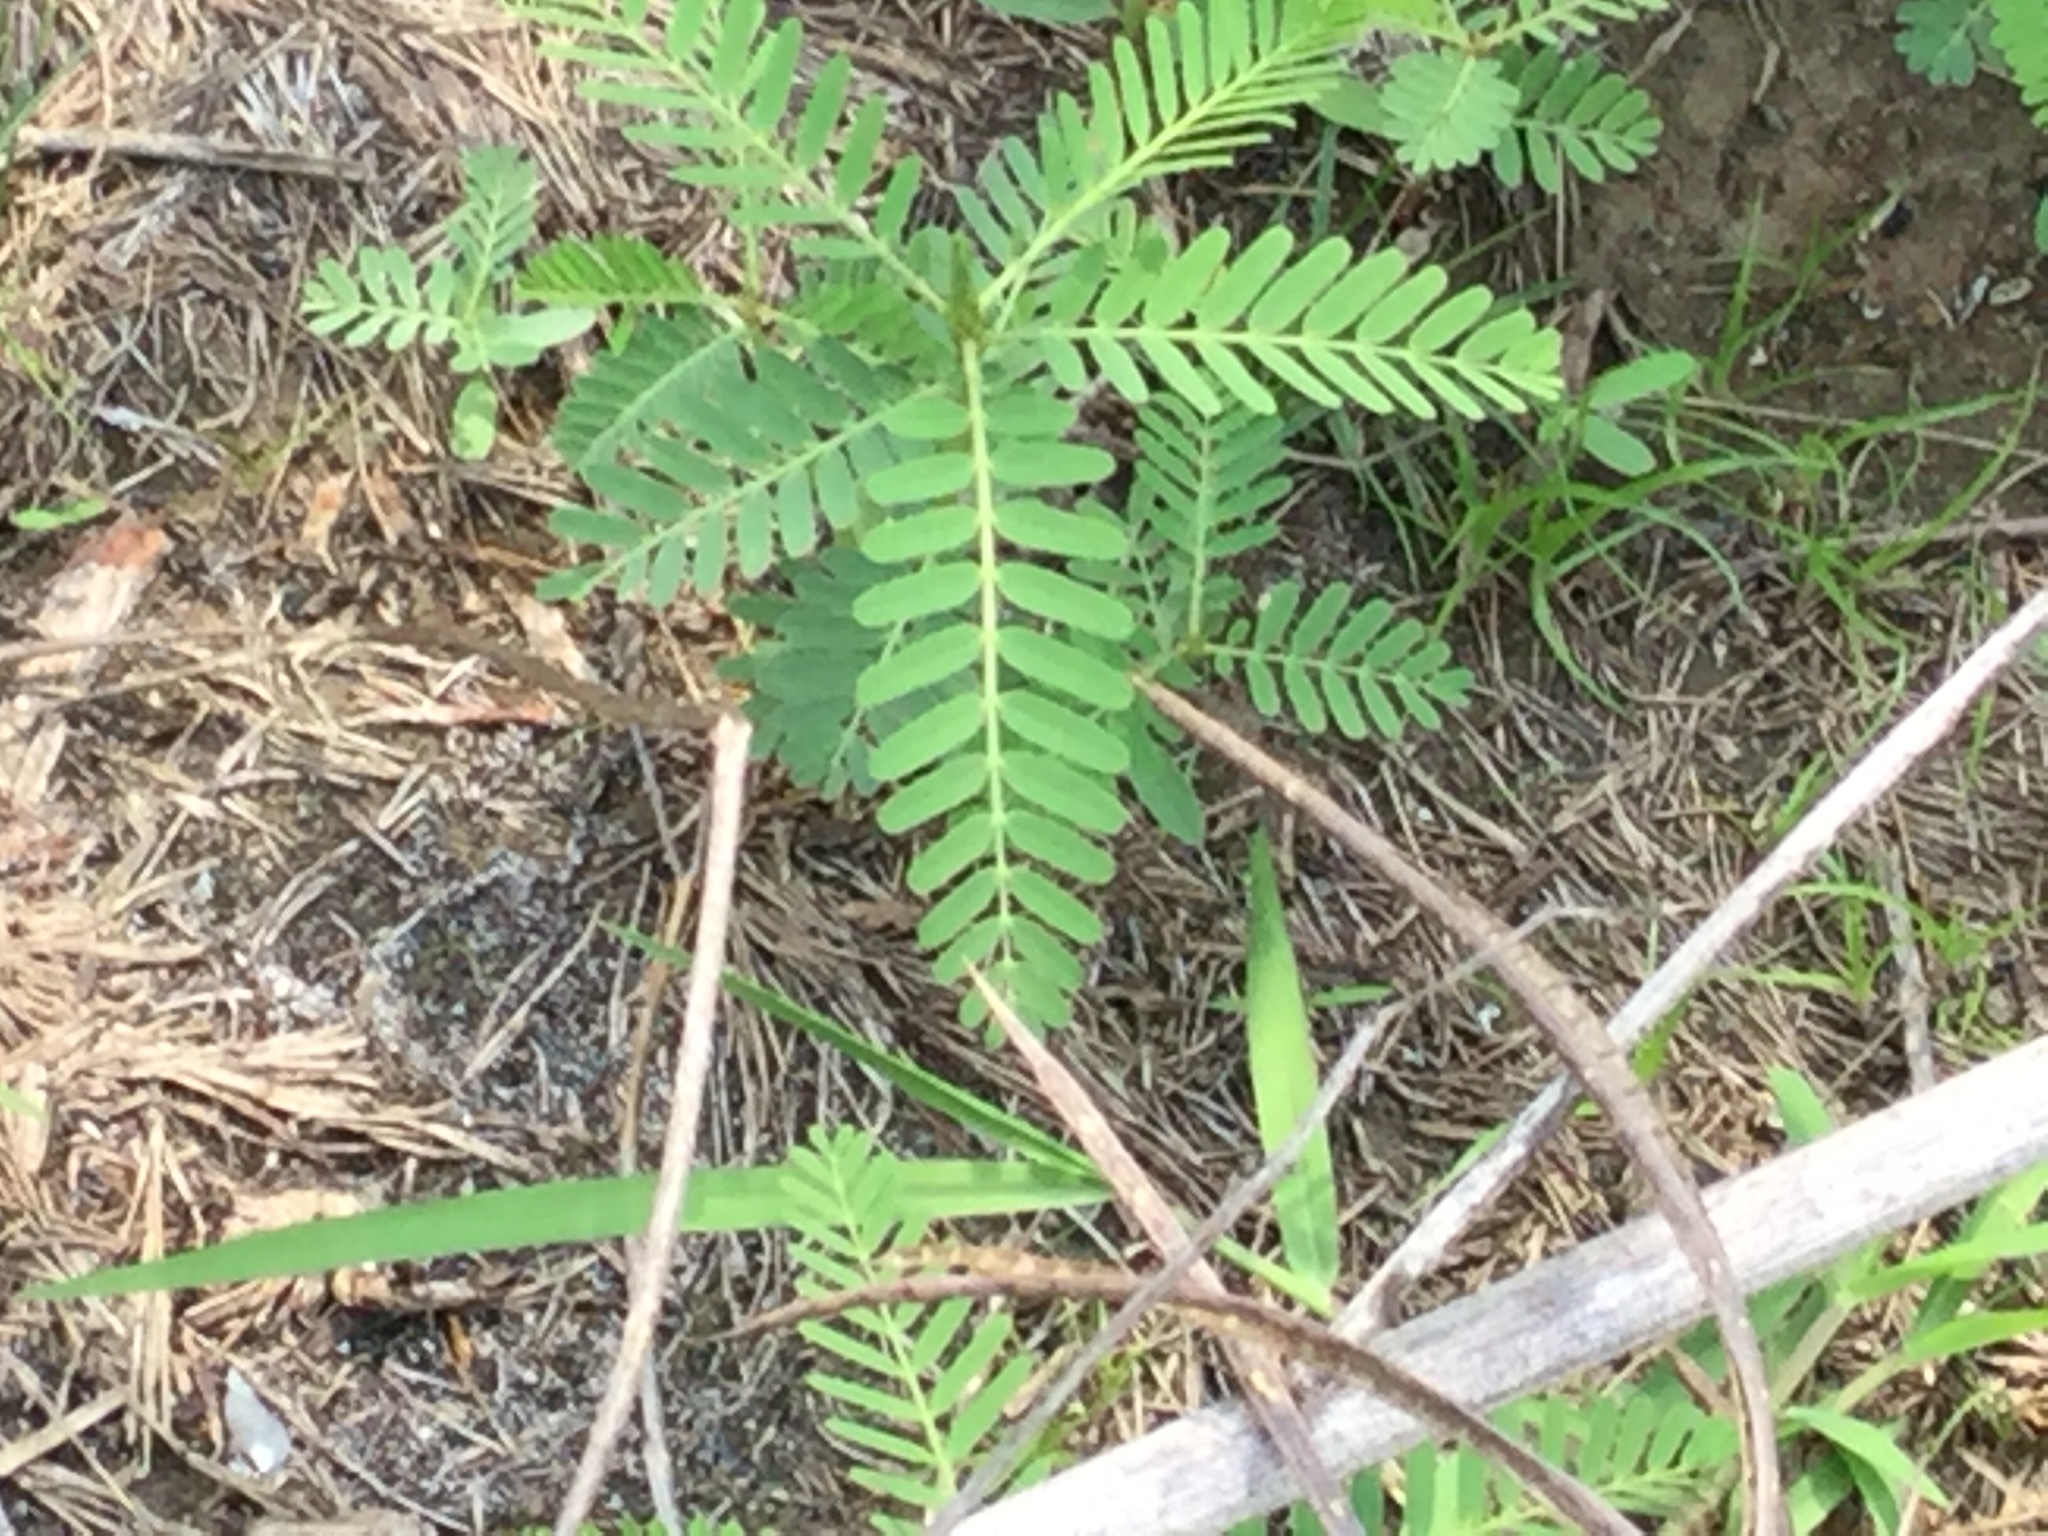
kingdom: Plantae
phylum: Tracheophyta
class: Magnoliopsida
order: Fabales
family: Fabaceae
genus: Sesbania
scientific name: Sesbania cannabina
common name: Canicha
